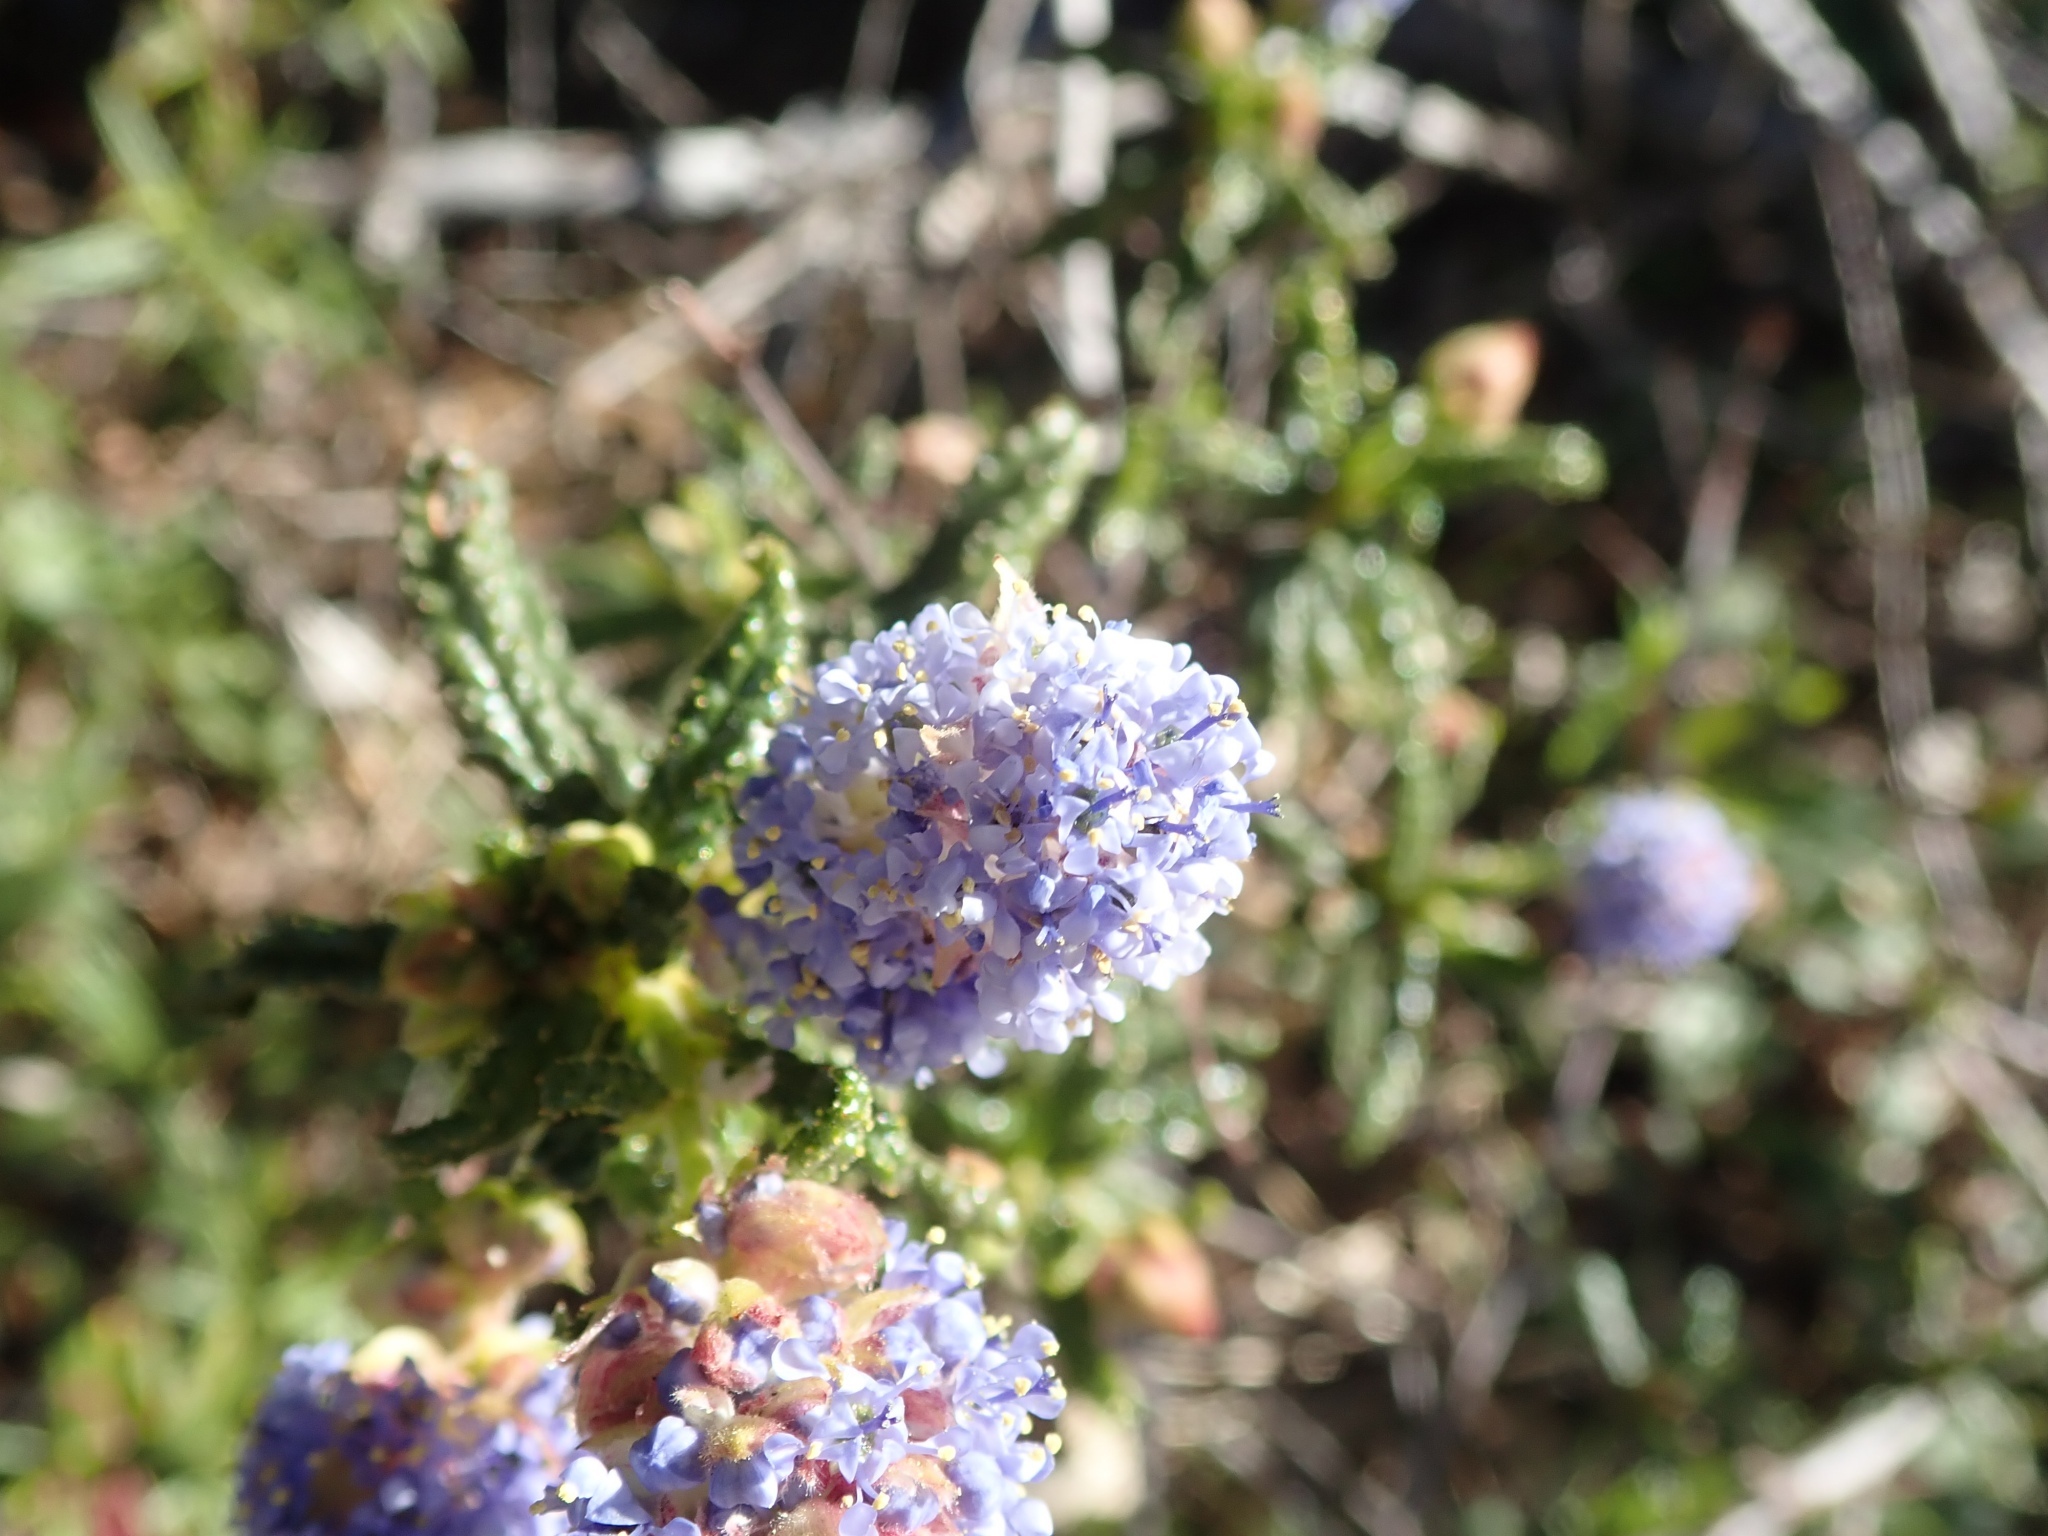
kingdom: Plantae
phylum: Tracheophyta
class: Magnoliopsida
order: Rosales
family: Rhamnaceae
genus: Ceanothus
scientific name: Ceanothus papillosus
